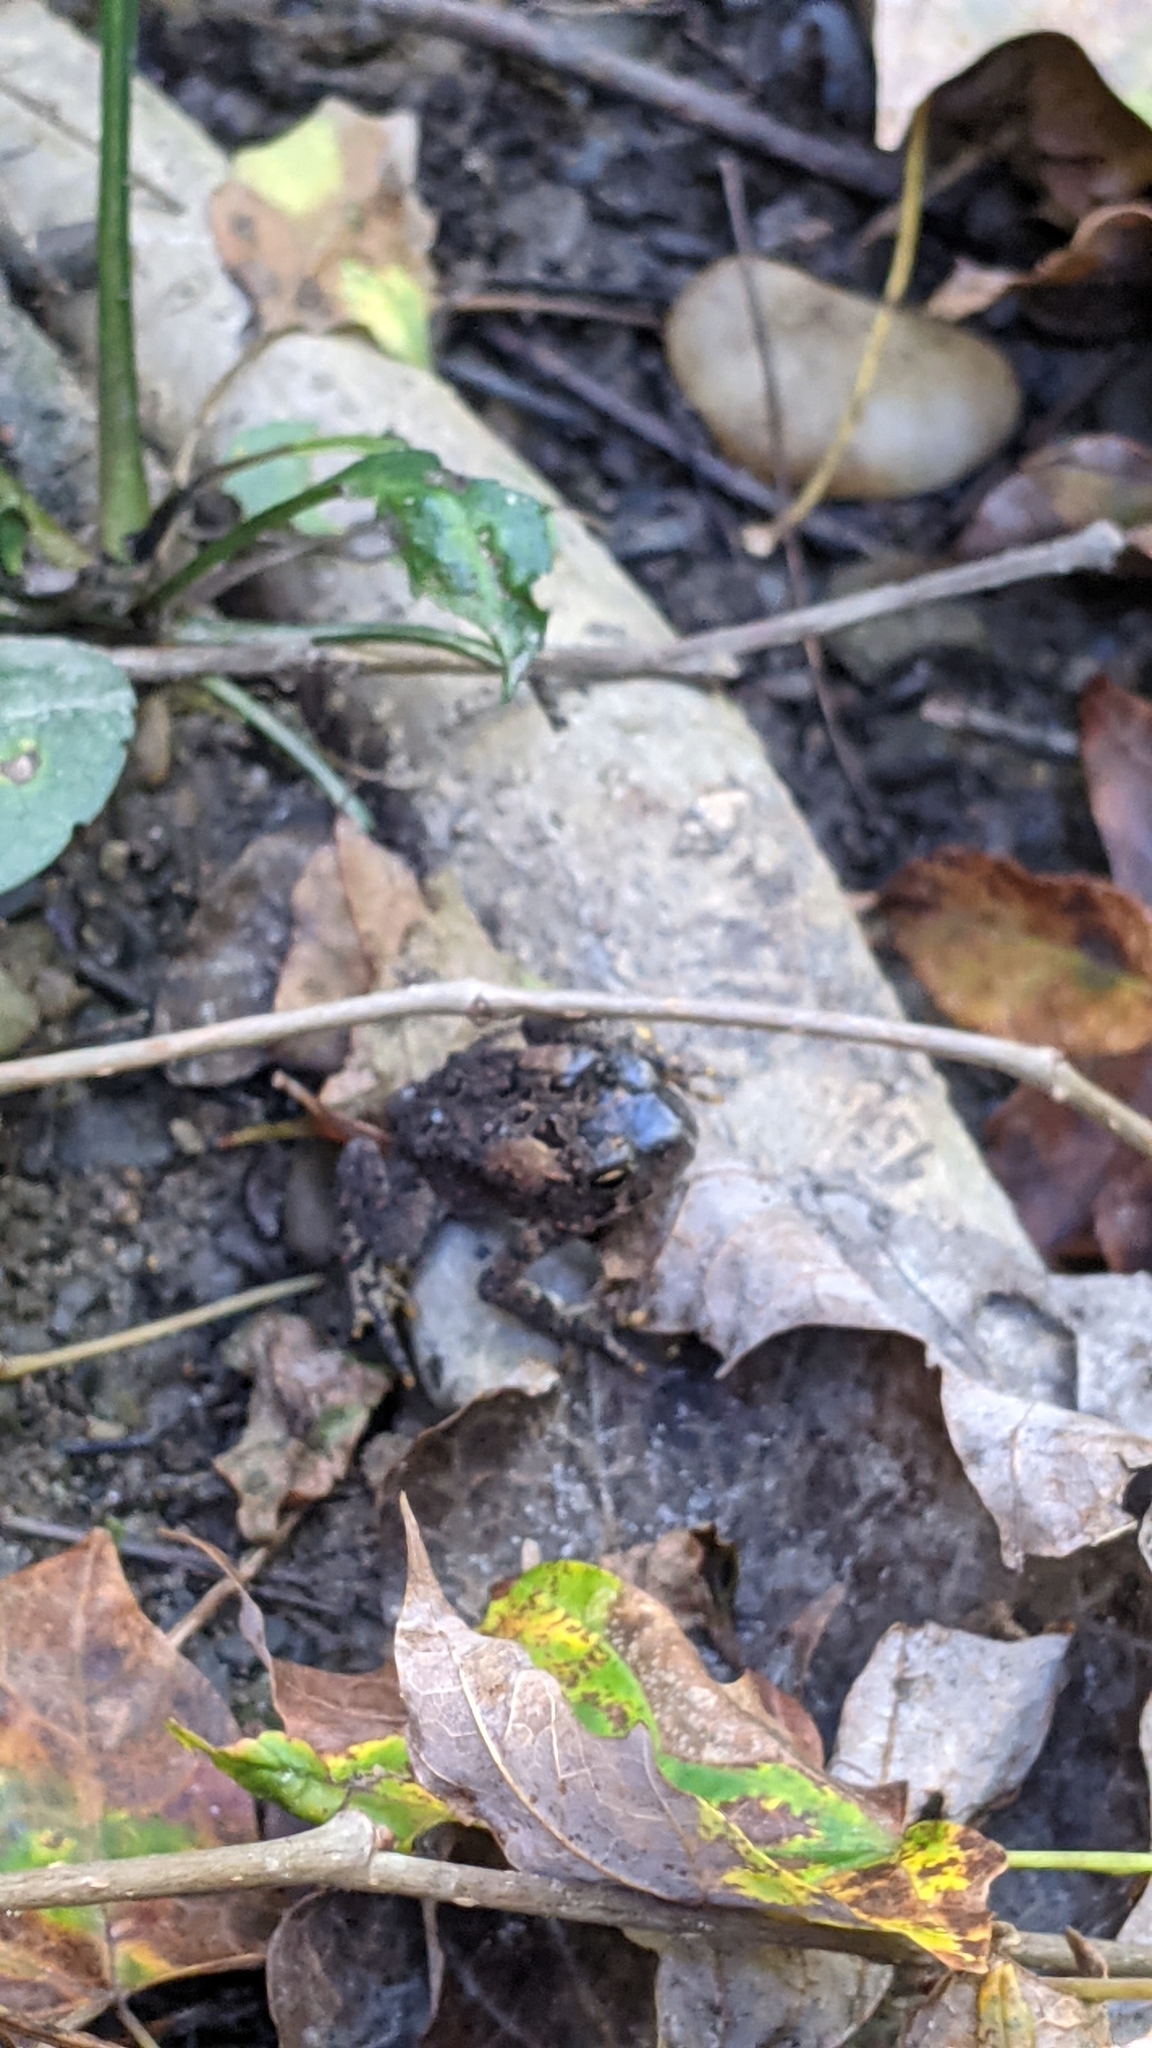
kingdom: Animalia
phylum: Chordata
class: Amphibia
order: Anura
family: Bufonidae
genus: Anaxyrus
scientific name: Anaxyrus americanus
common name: American toad
